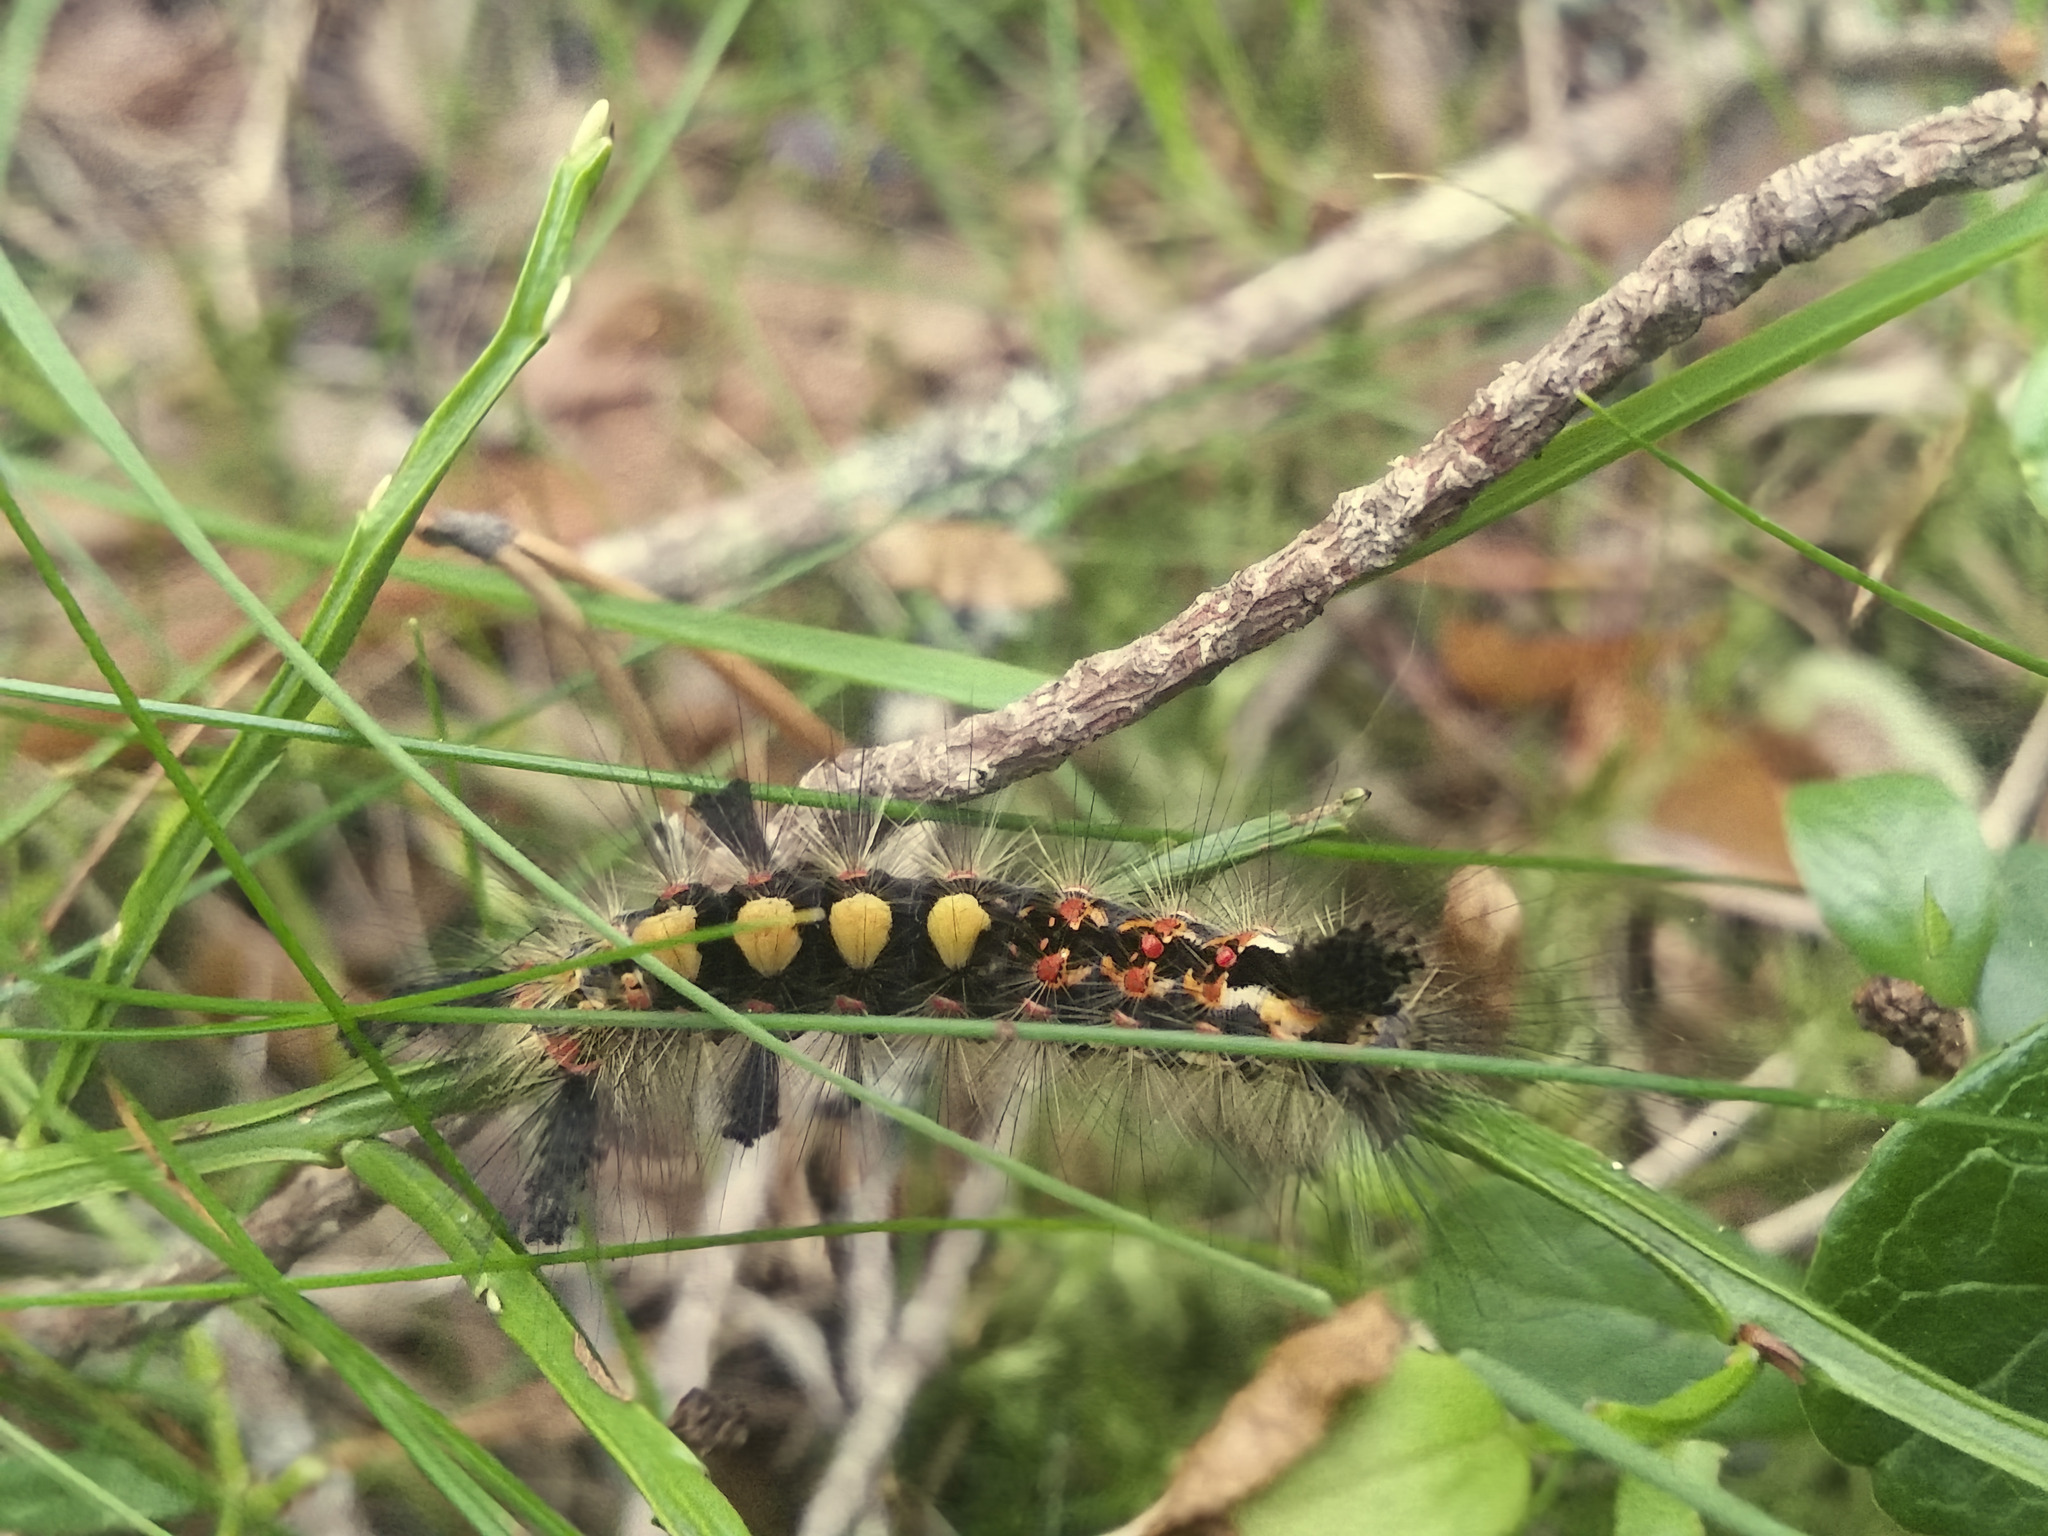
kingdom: Animalia
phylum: Arthropoda
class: Insecta
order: Lepidoptera
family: Erebidae
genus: Orgyia
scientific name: Orgyia antiqua
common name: Vapourer
